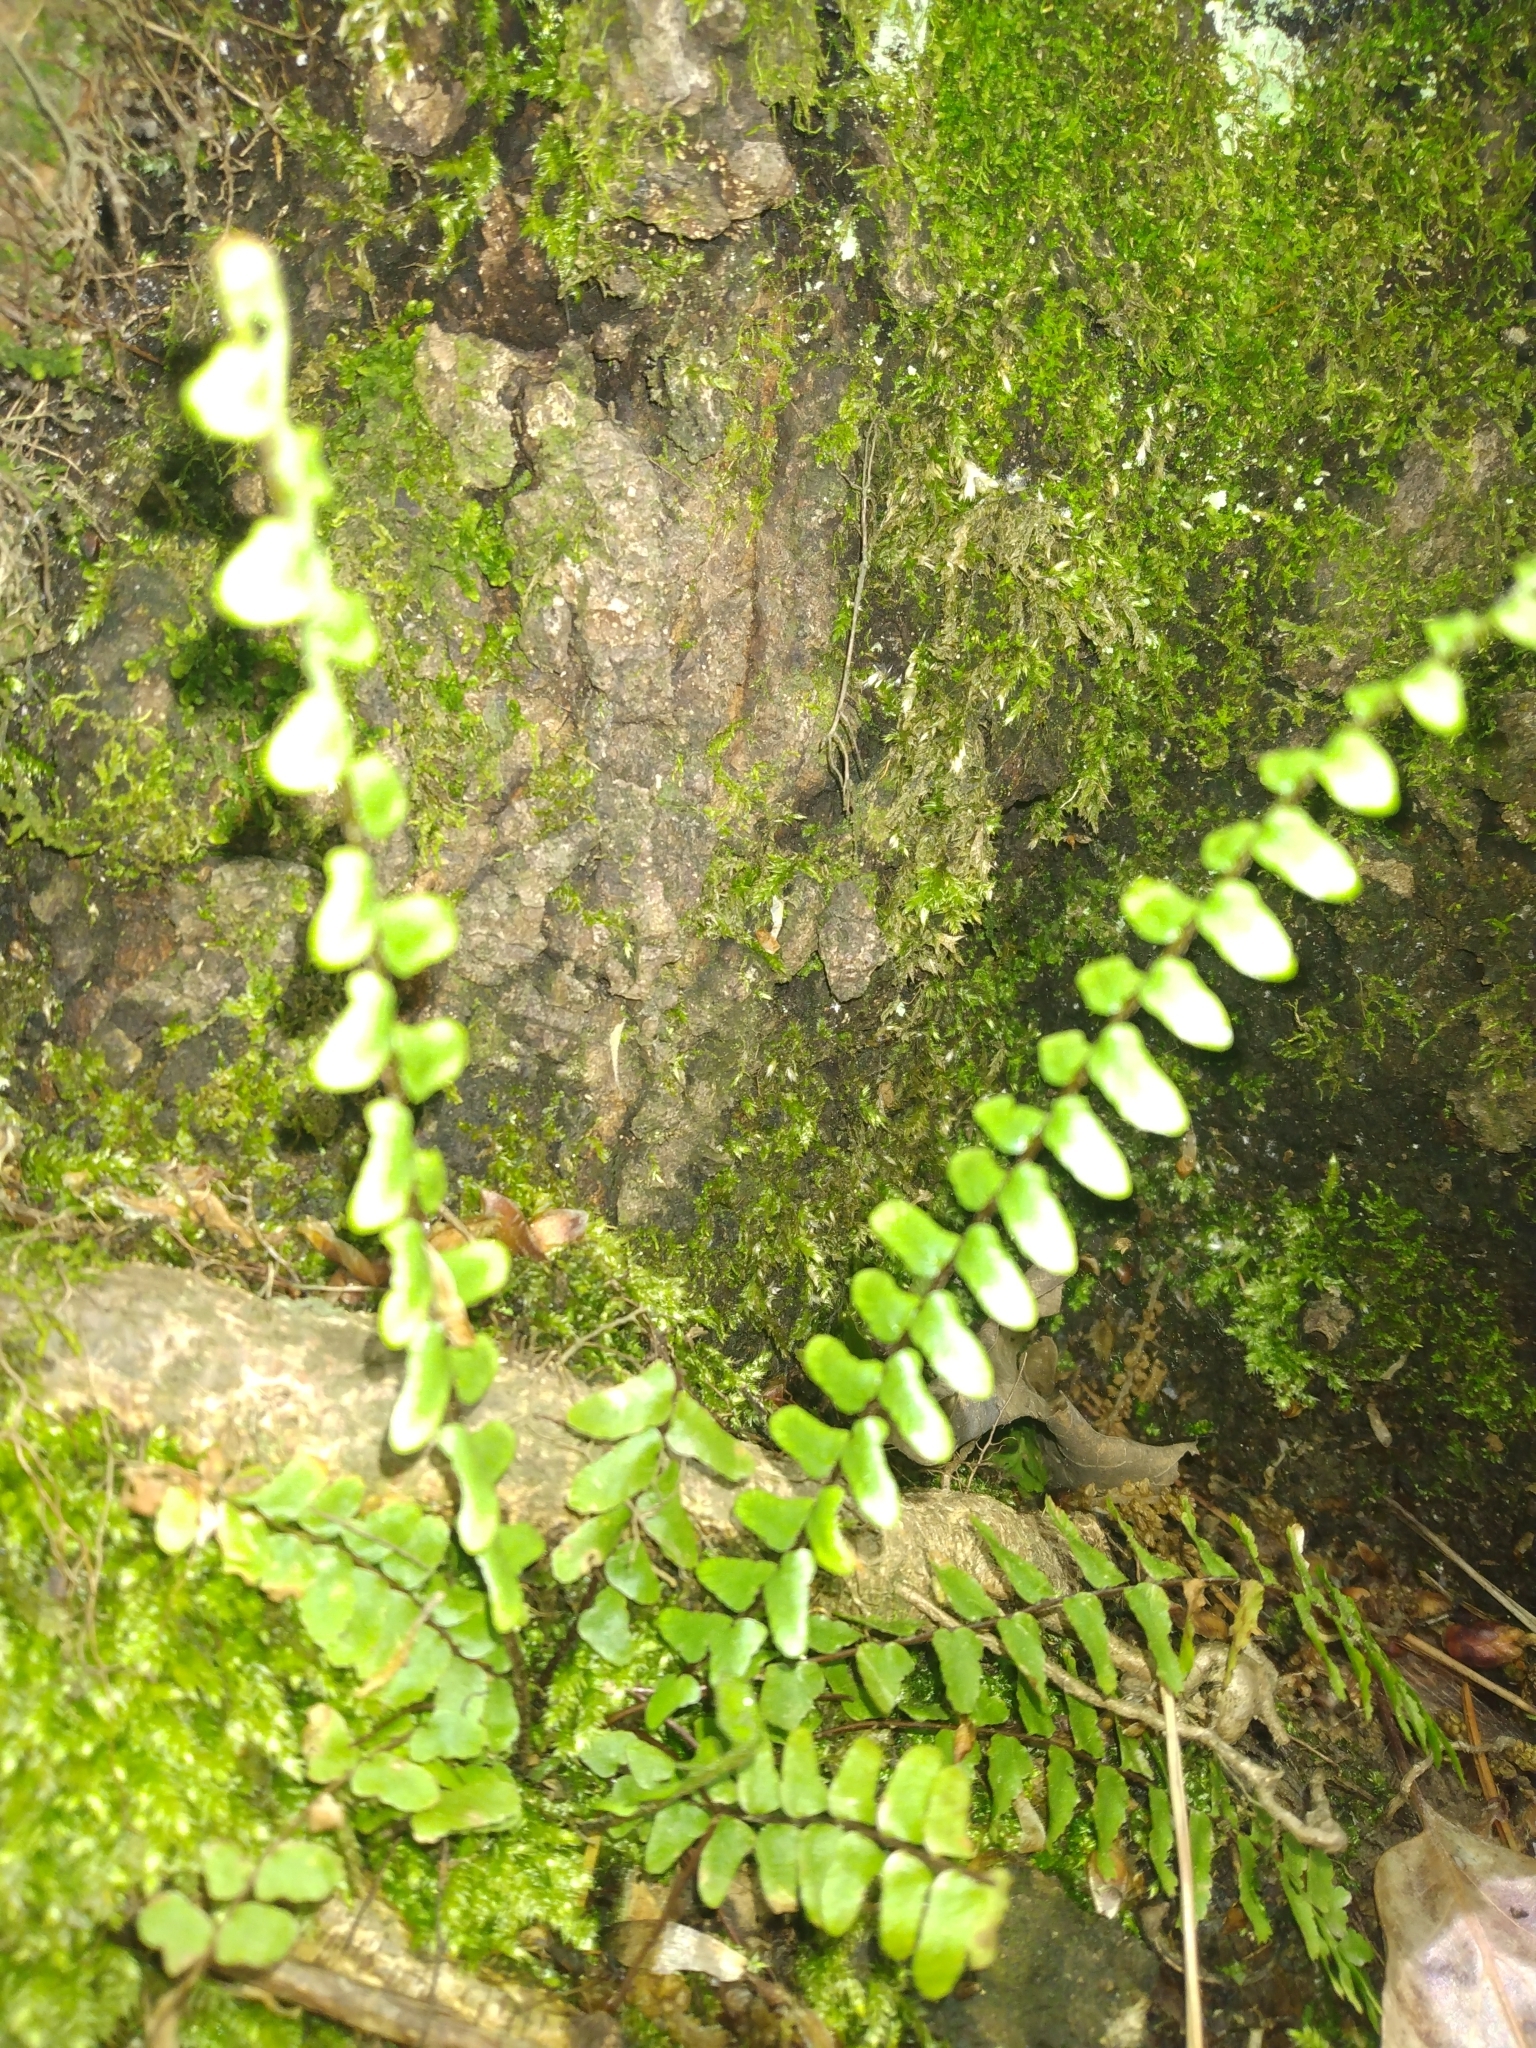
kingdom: Plantae
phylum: Tracheophyta
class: Polypodiopsida
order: Polypodiales
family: Aspleniaceae
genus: Asplenium
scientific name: Asplenium platyneuron
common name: Ebony spleenwort
